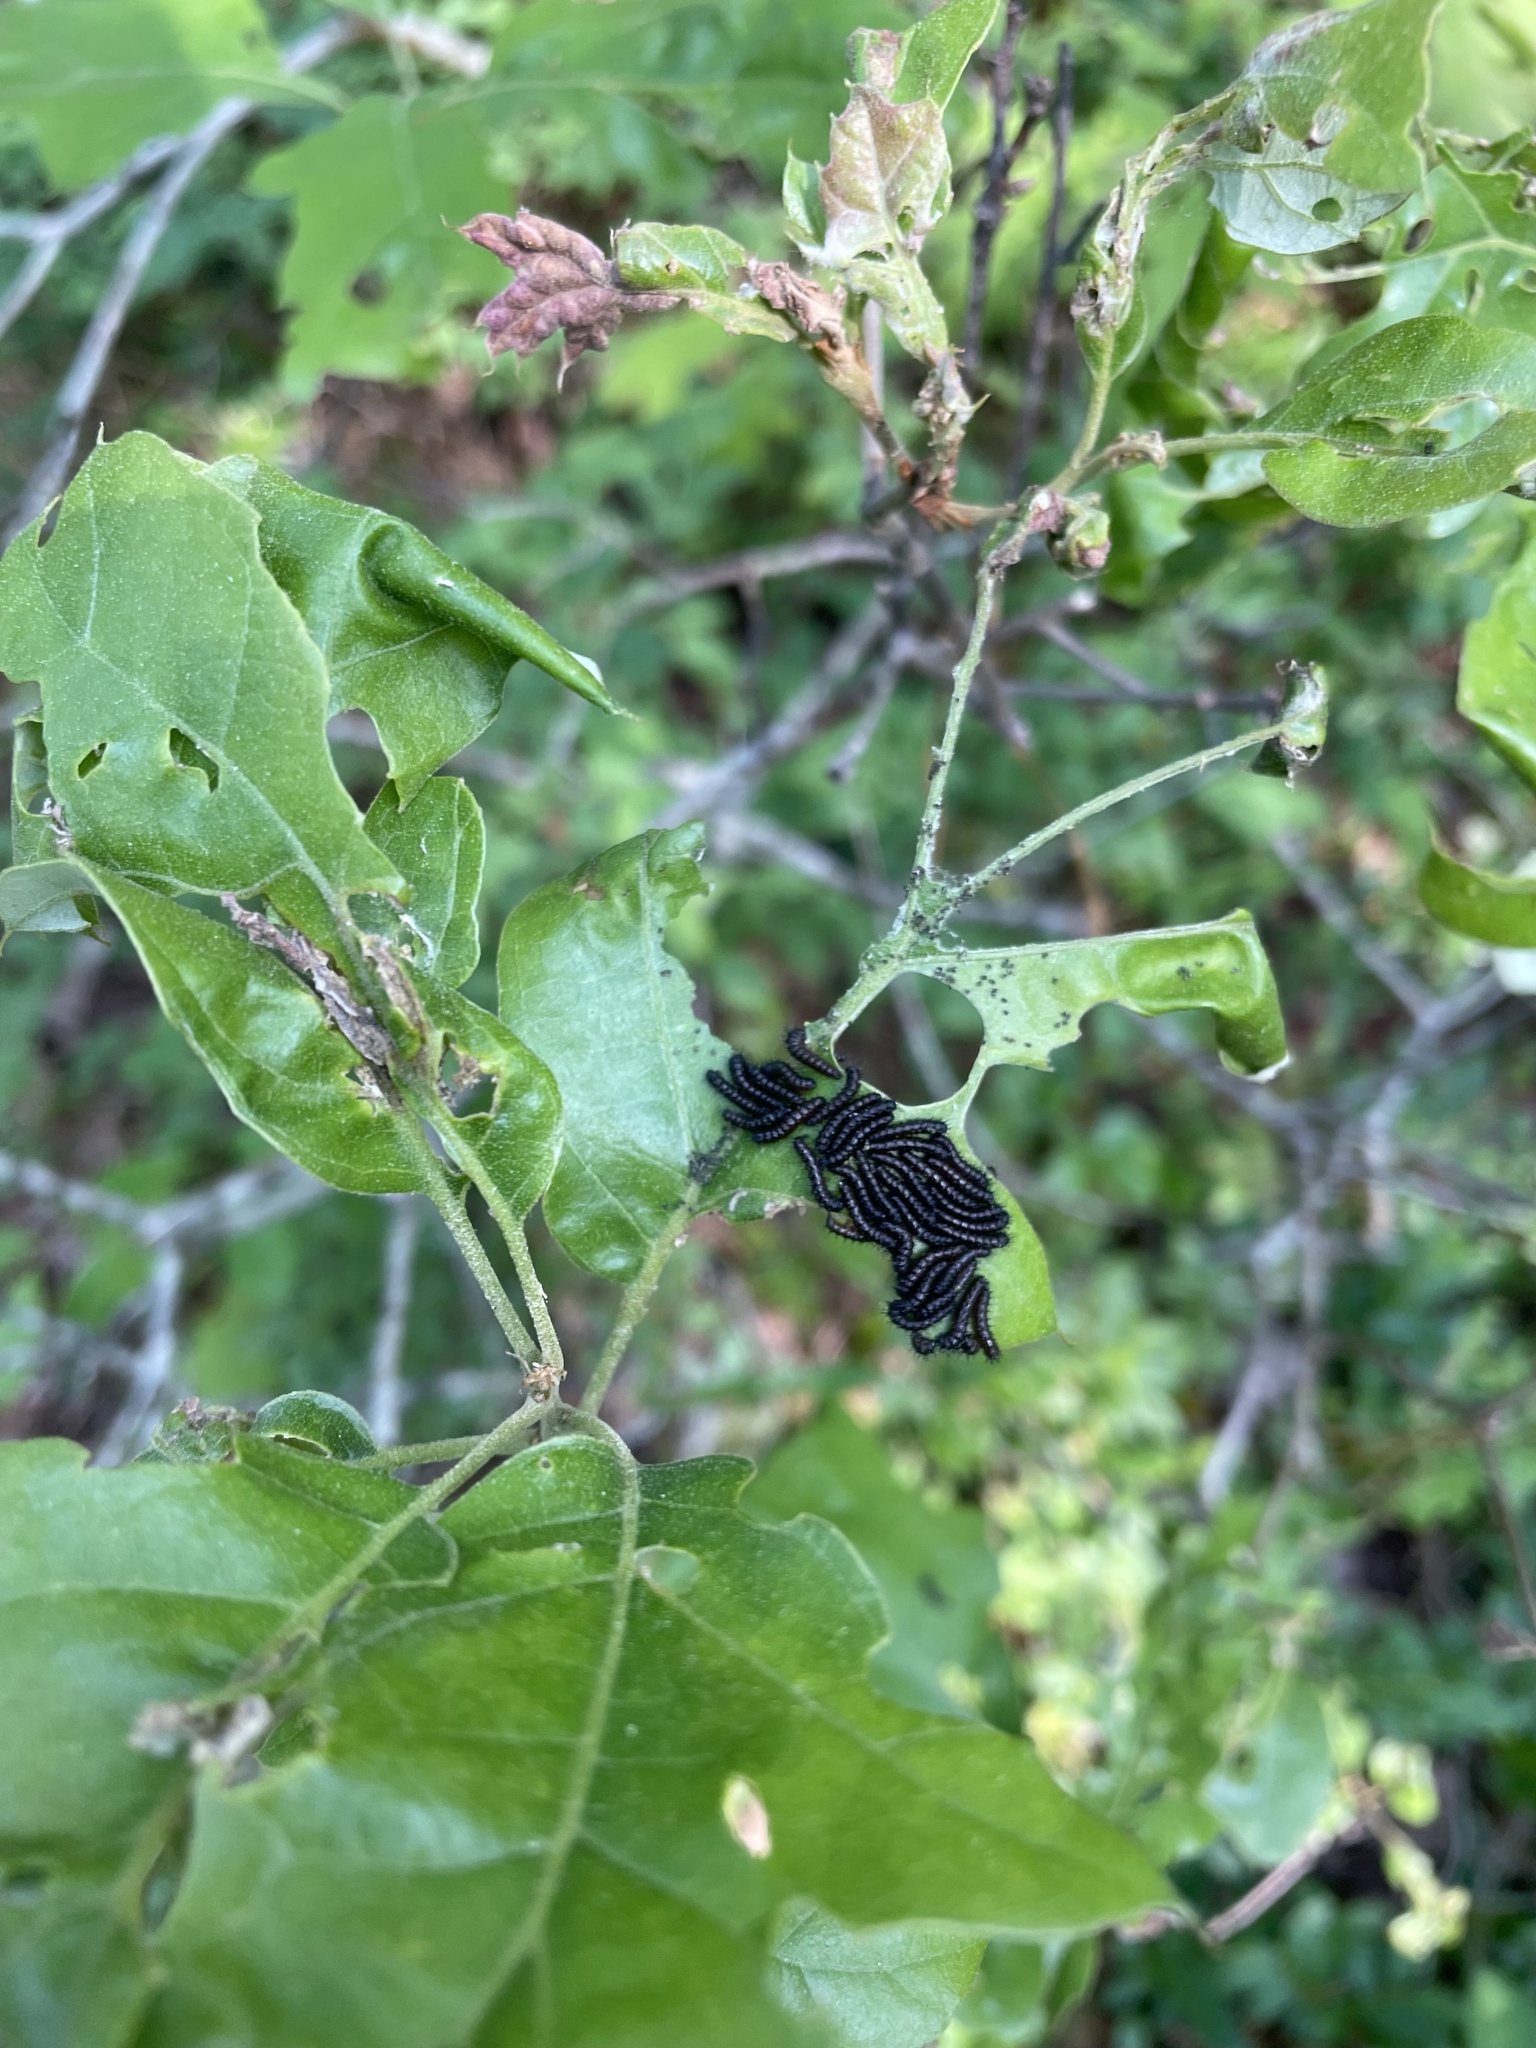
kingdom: Animalia
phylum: Arthropoda
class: Insecta
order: Lepidoptera
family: Saturniidae
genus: Hemileuca
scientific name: Hemileuca maia
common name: Eastern buckmoth
